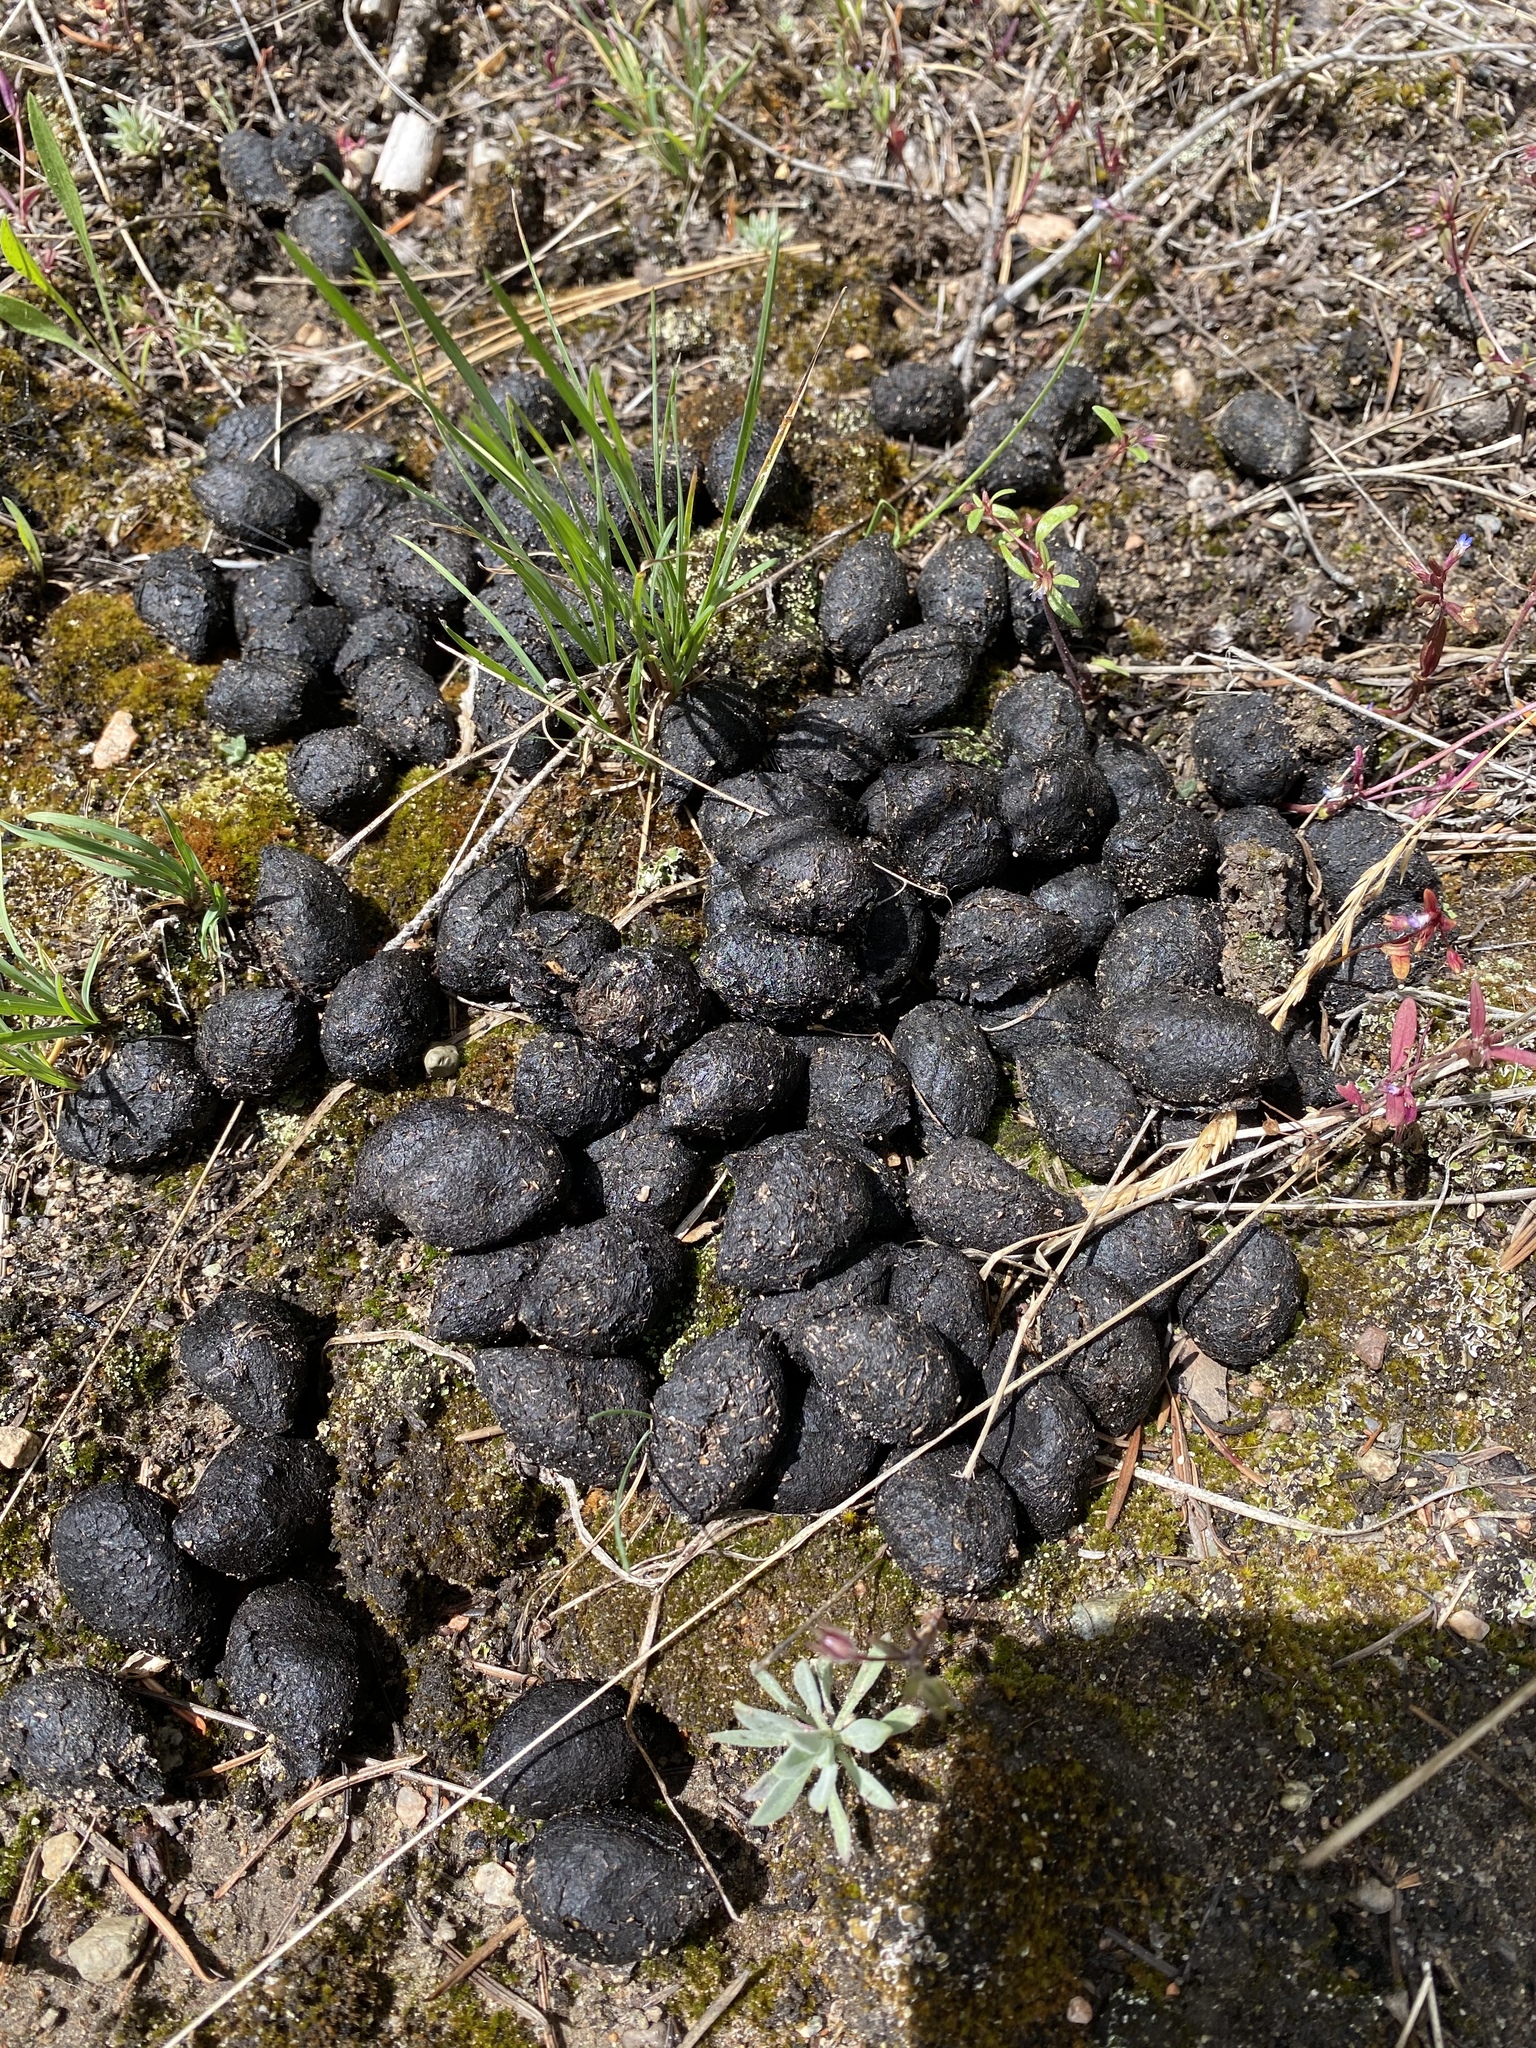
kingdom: Animalia
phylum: Chordata
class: Mammalia
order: Artiodactyla
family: Cervidae
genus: Alces
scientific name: Alces alces
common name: Moose
